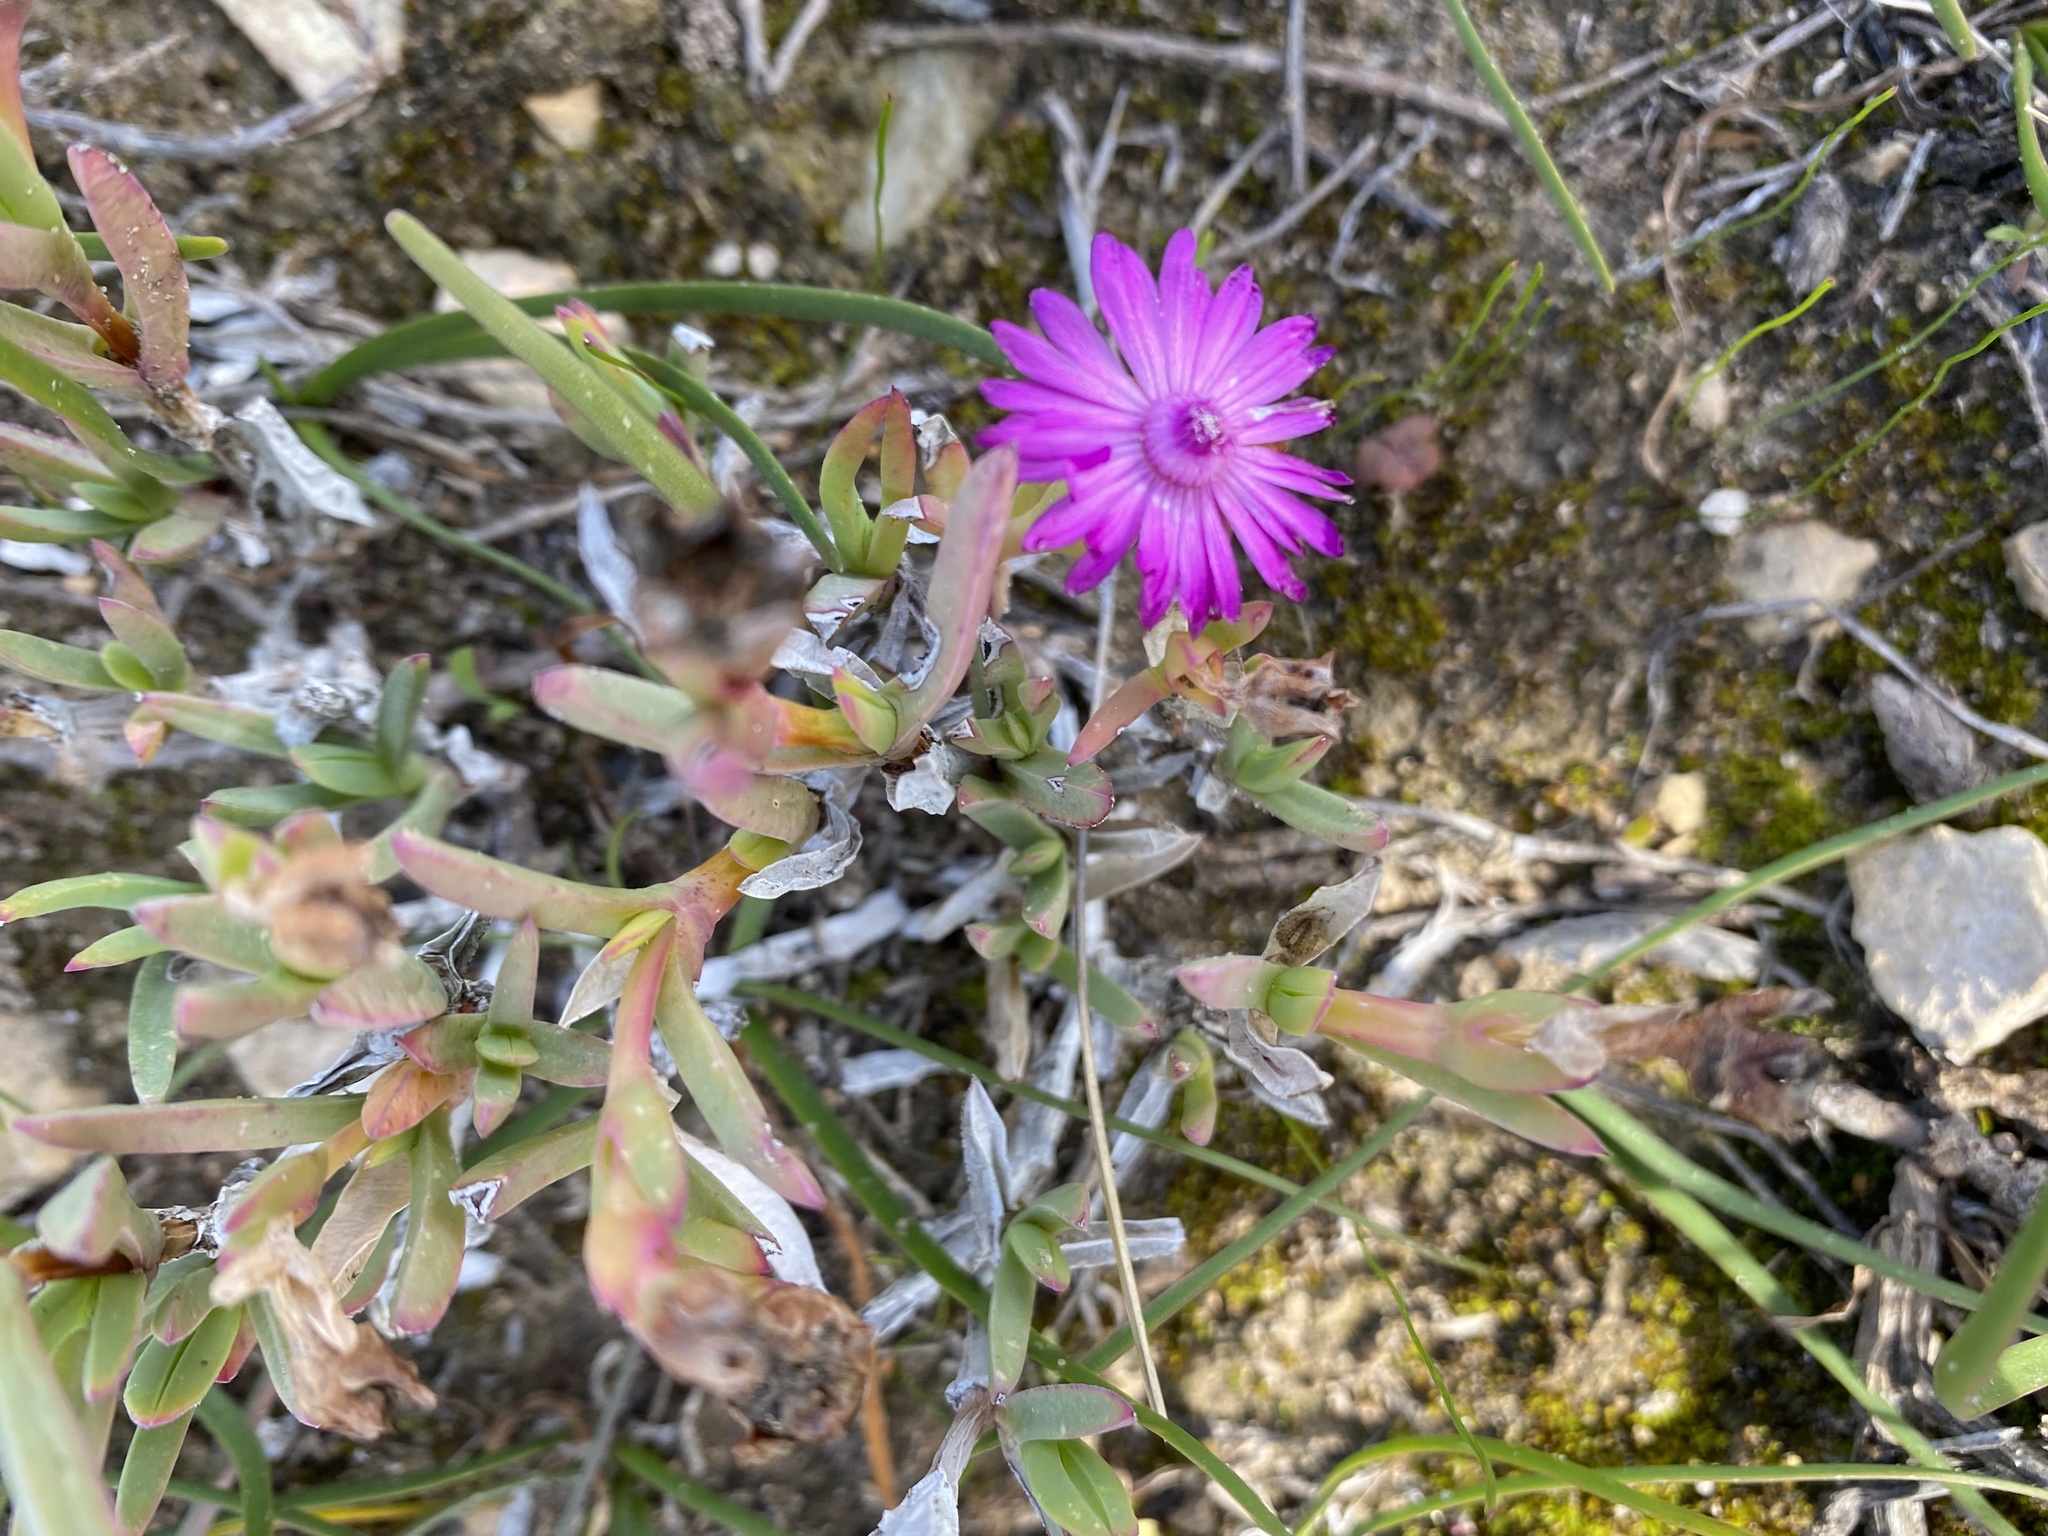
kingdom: Plantae
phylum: Tracheophyta
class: Magnoliopsida
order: Caryophyllales
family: Aizoaceae
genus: Ruschia
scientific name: Ruschia calcicola
